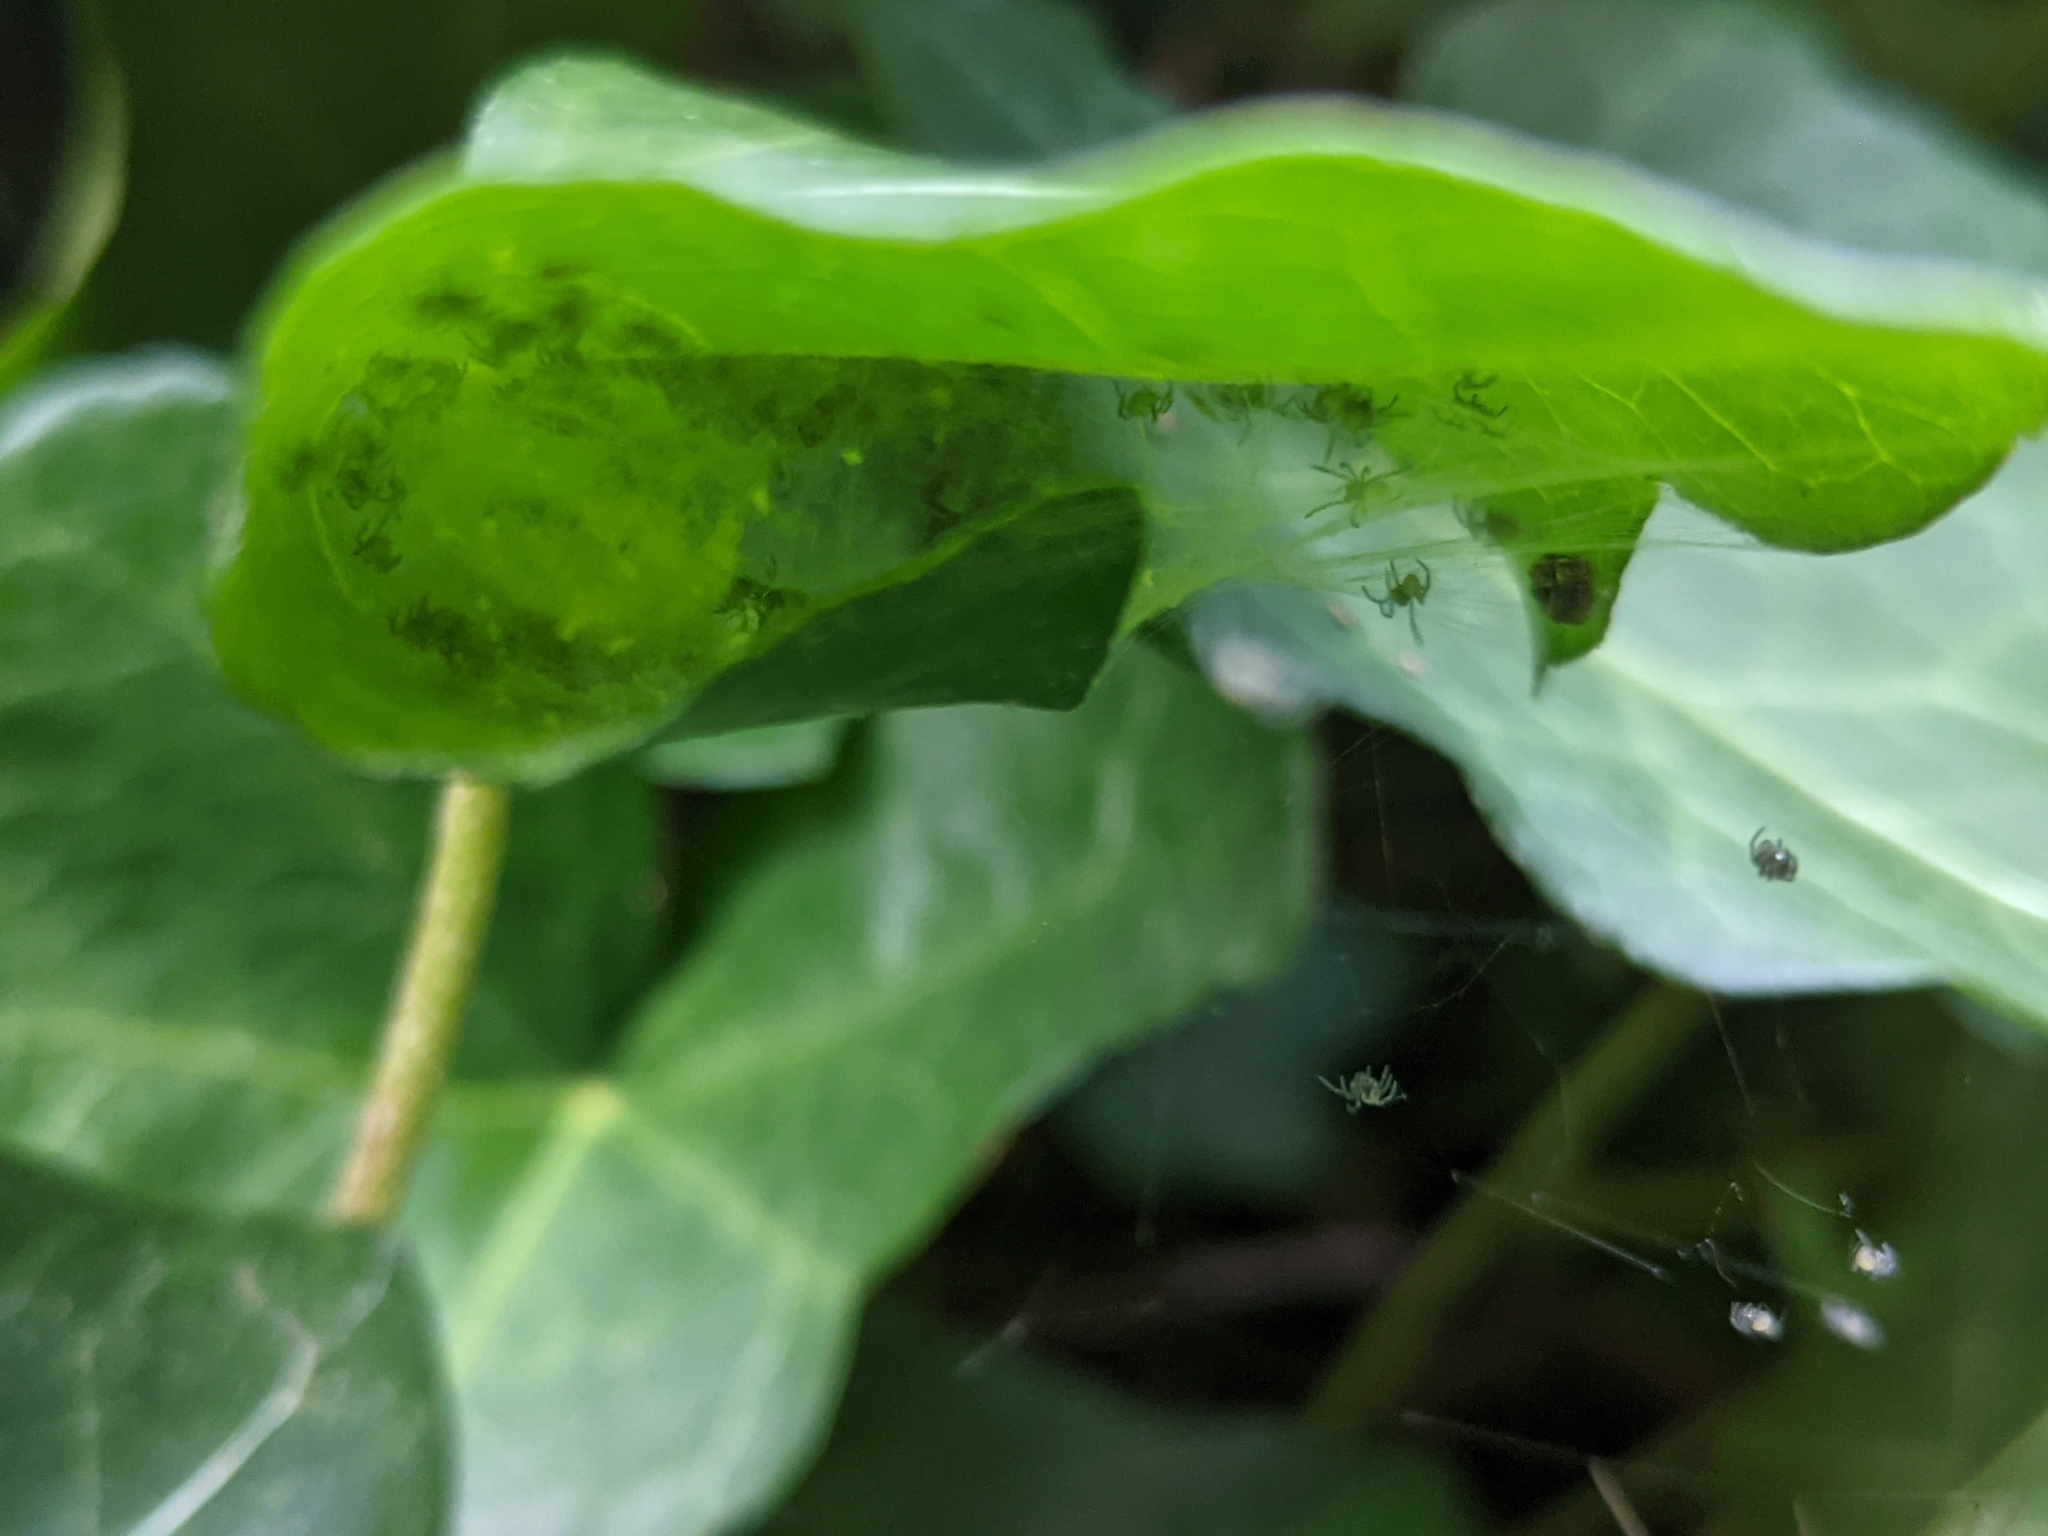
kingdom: Animalia
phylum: Arthropoda
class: Arachnida
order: Araneae
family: Theridiidae
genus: Enoplognatha
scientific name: Enoplognatha ovata
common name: Common candy-striped spider
